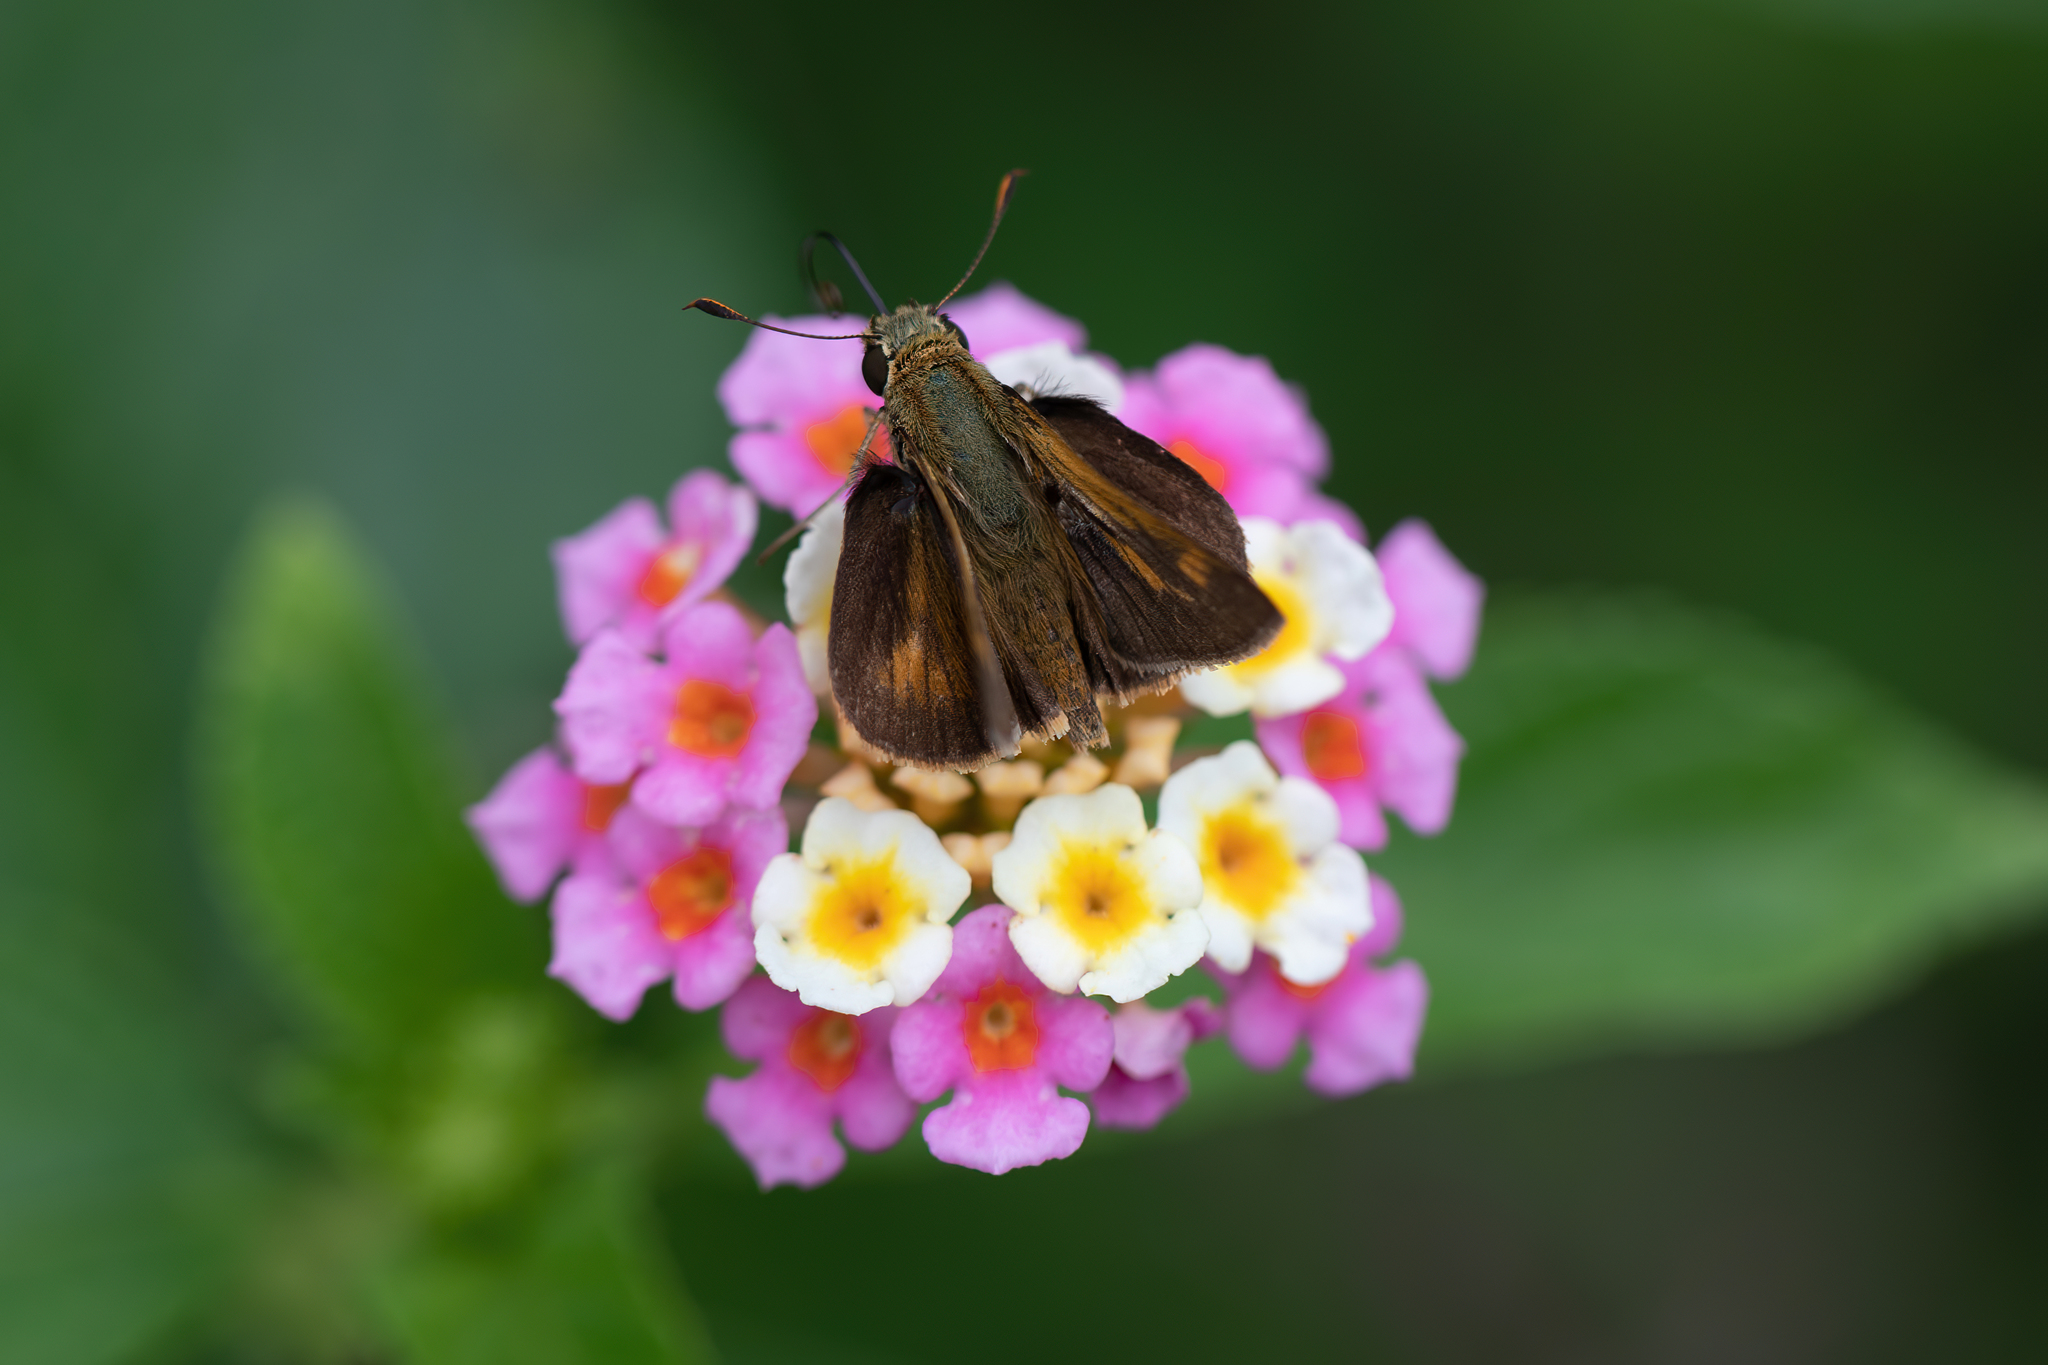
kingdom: Animalia
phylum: Arthropoda
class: Insecta
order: Lepidoptera
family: Hesperiidae
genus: Polites
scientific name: Polites otho
